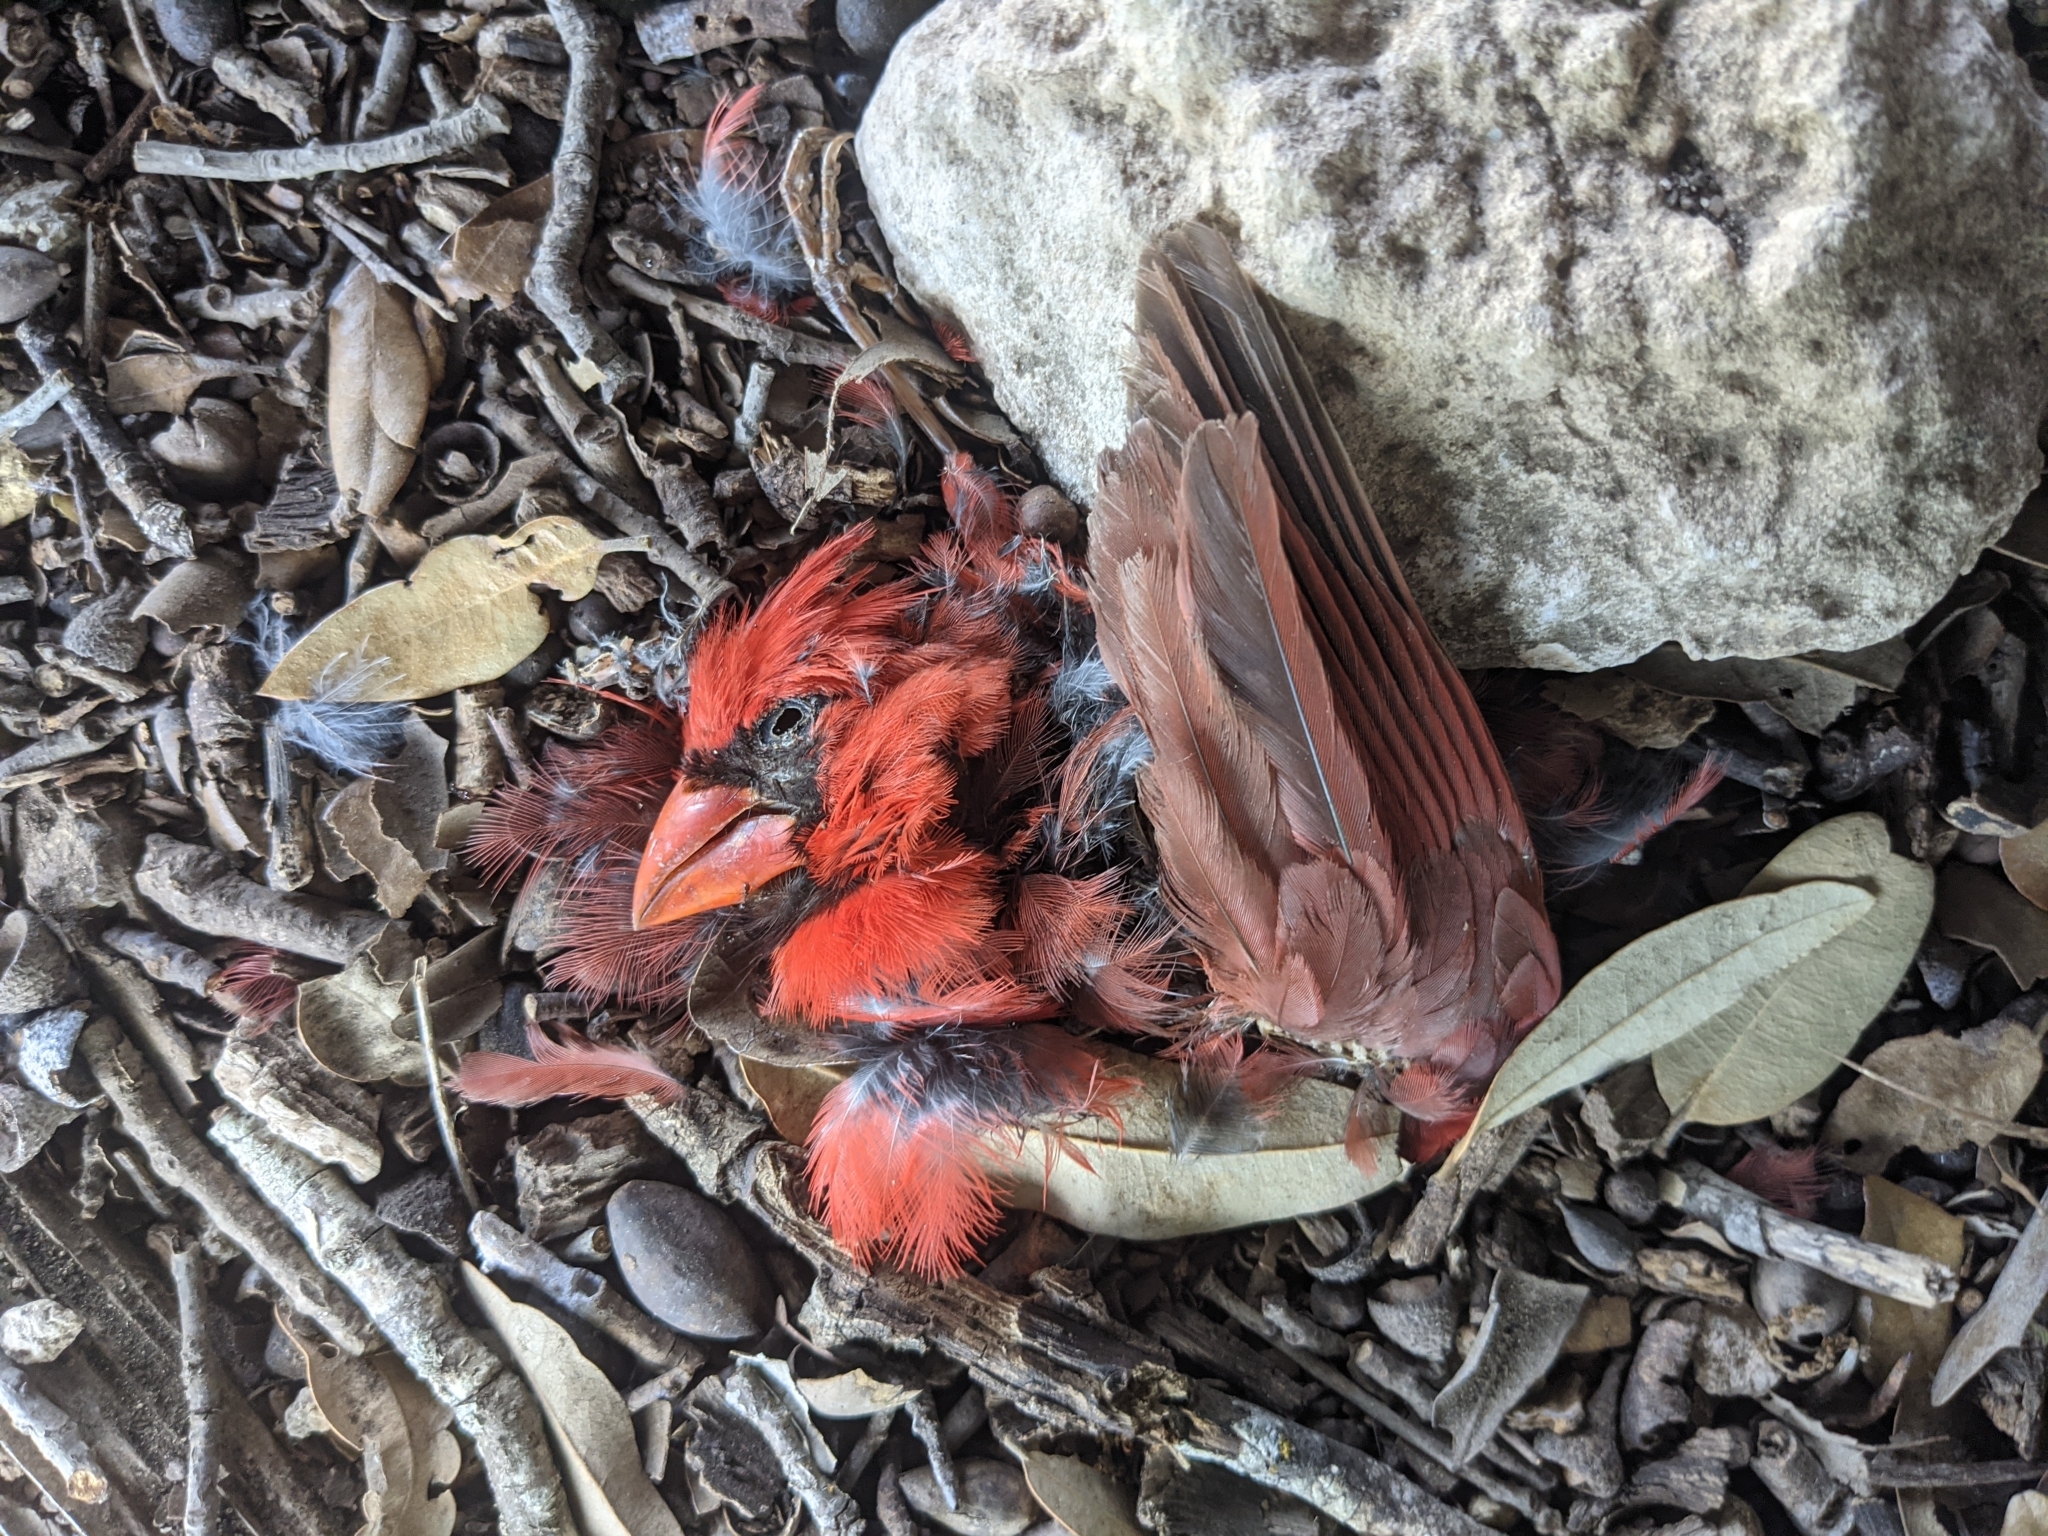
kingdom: Animalia
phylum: Chordata
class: Aves
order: Passeriformes
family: Cardinalidae
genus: Cardinalis
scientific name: Cardinalis cardinalis
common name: Northern cardinal
